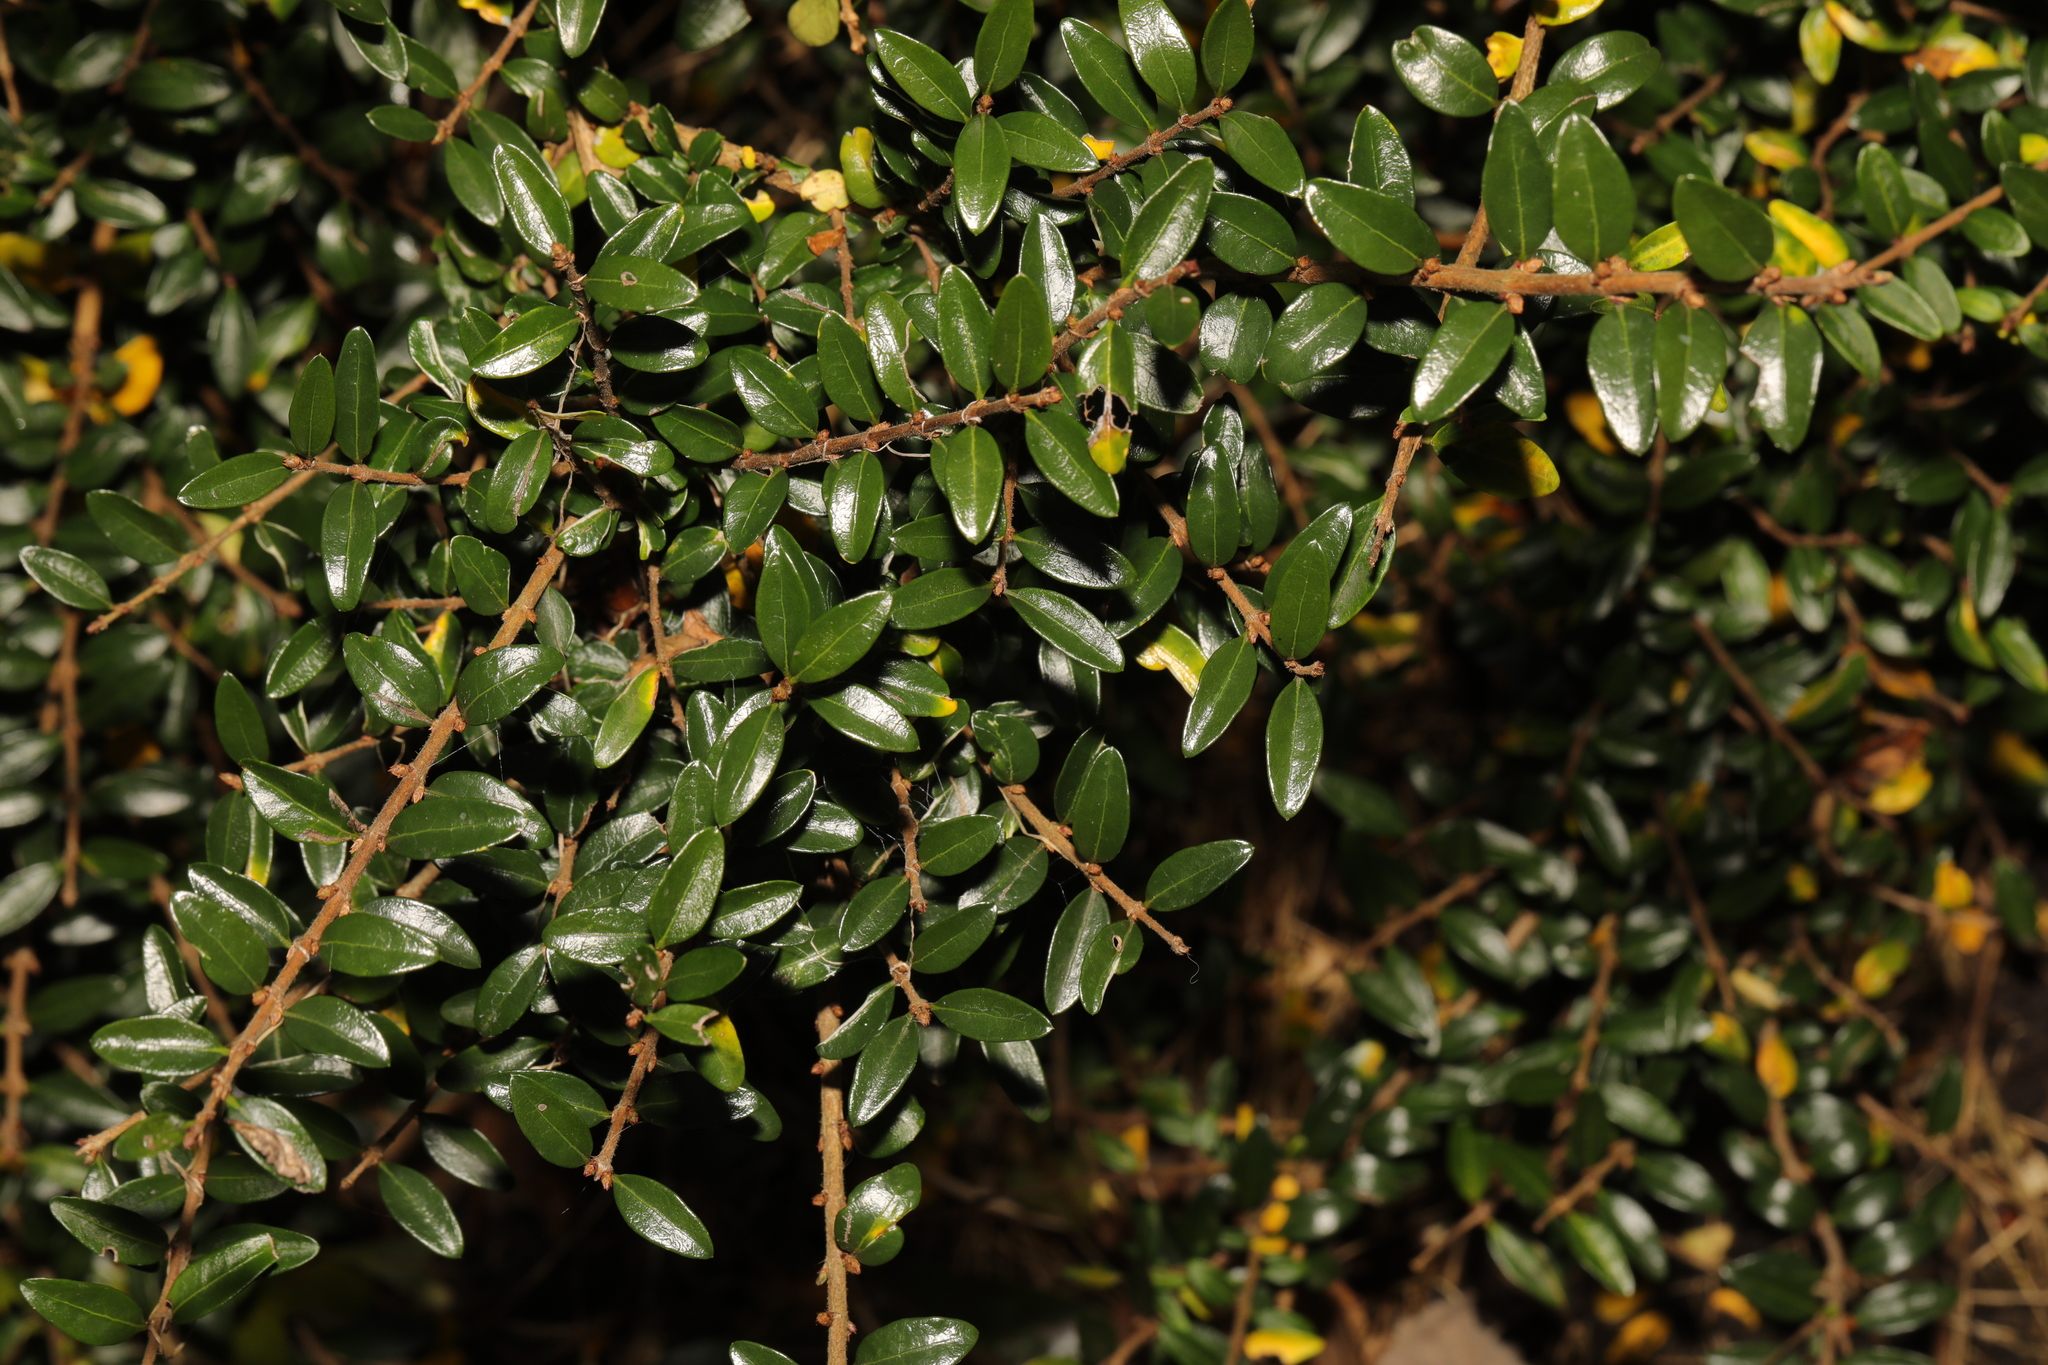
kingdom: Plantae
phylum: Tracheophyta
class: Magnoliopsida
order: Dipsacales
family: Caprifoliaceae
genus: Lonicera
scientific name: Lonicera pileata
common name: Box-leaved honeysuckle
